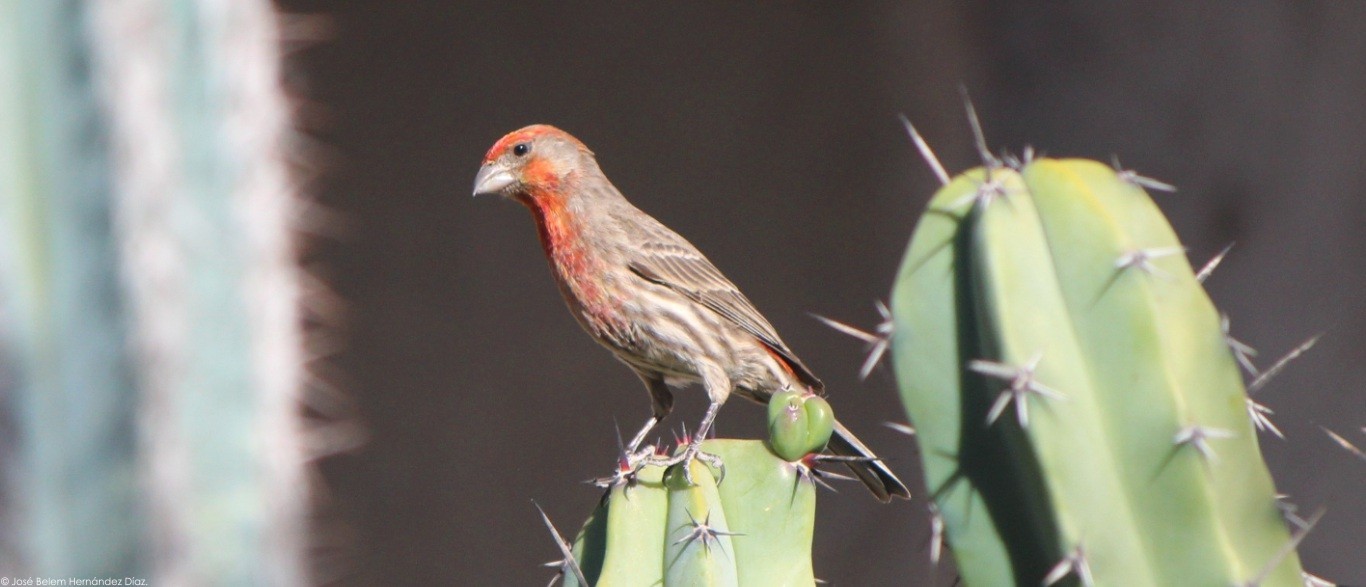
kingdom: Animalia
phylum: Chordata
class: Aves
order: Passeriformes
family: Fringillidae
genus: Haemorhous
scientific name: Haemorhous mexicanus
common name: House finch
